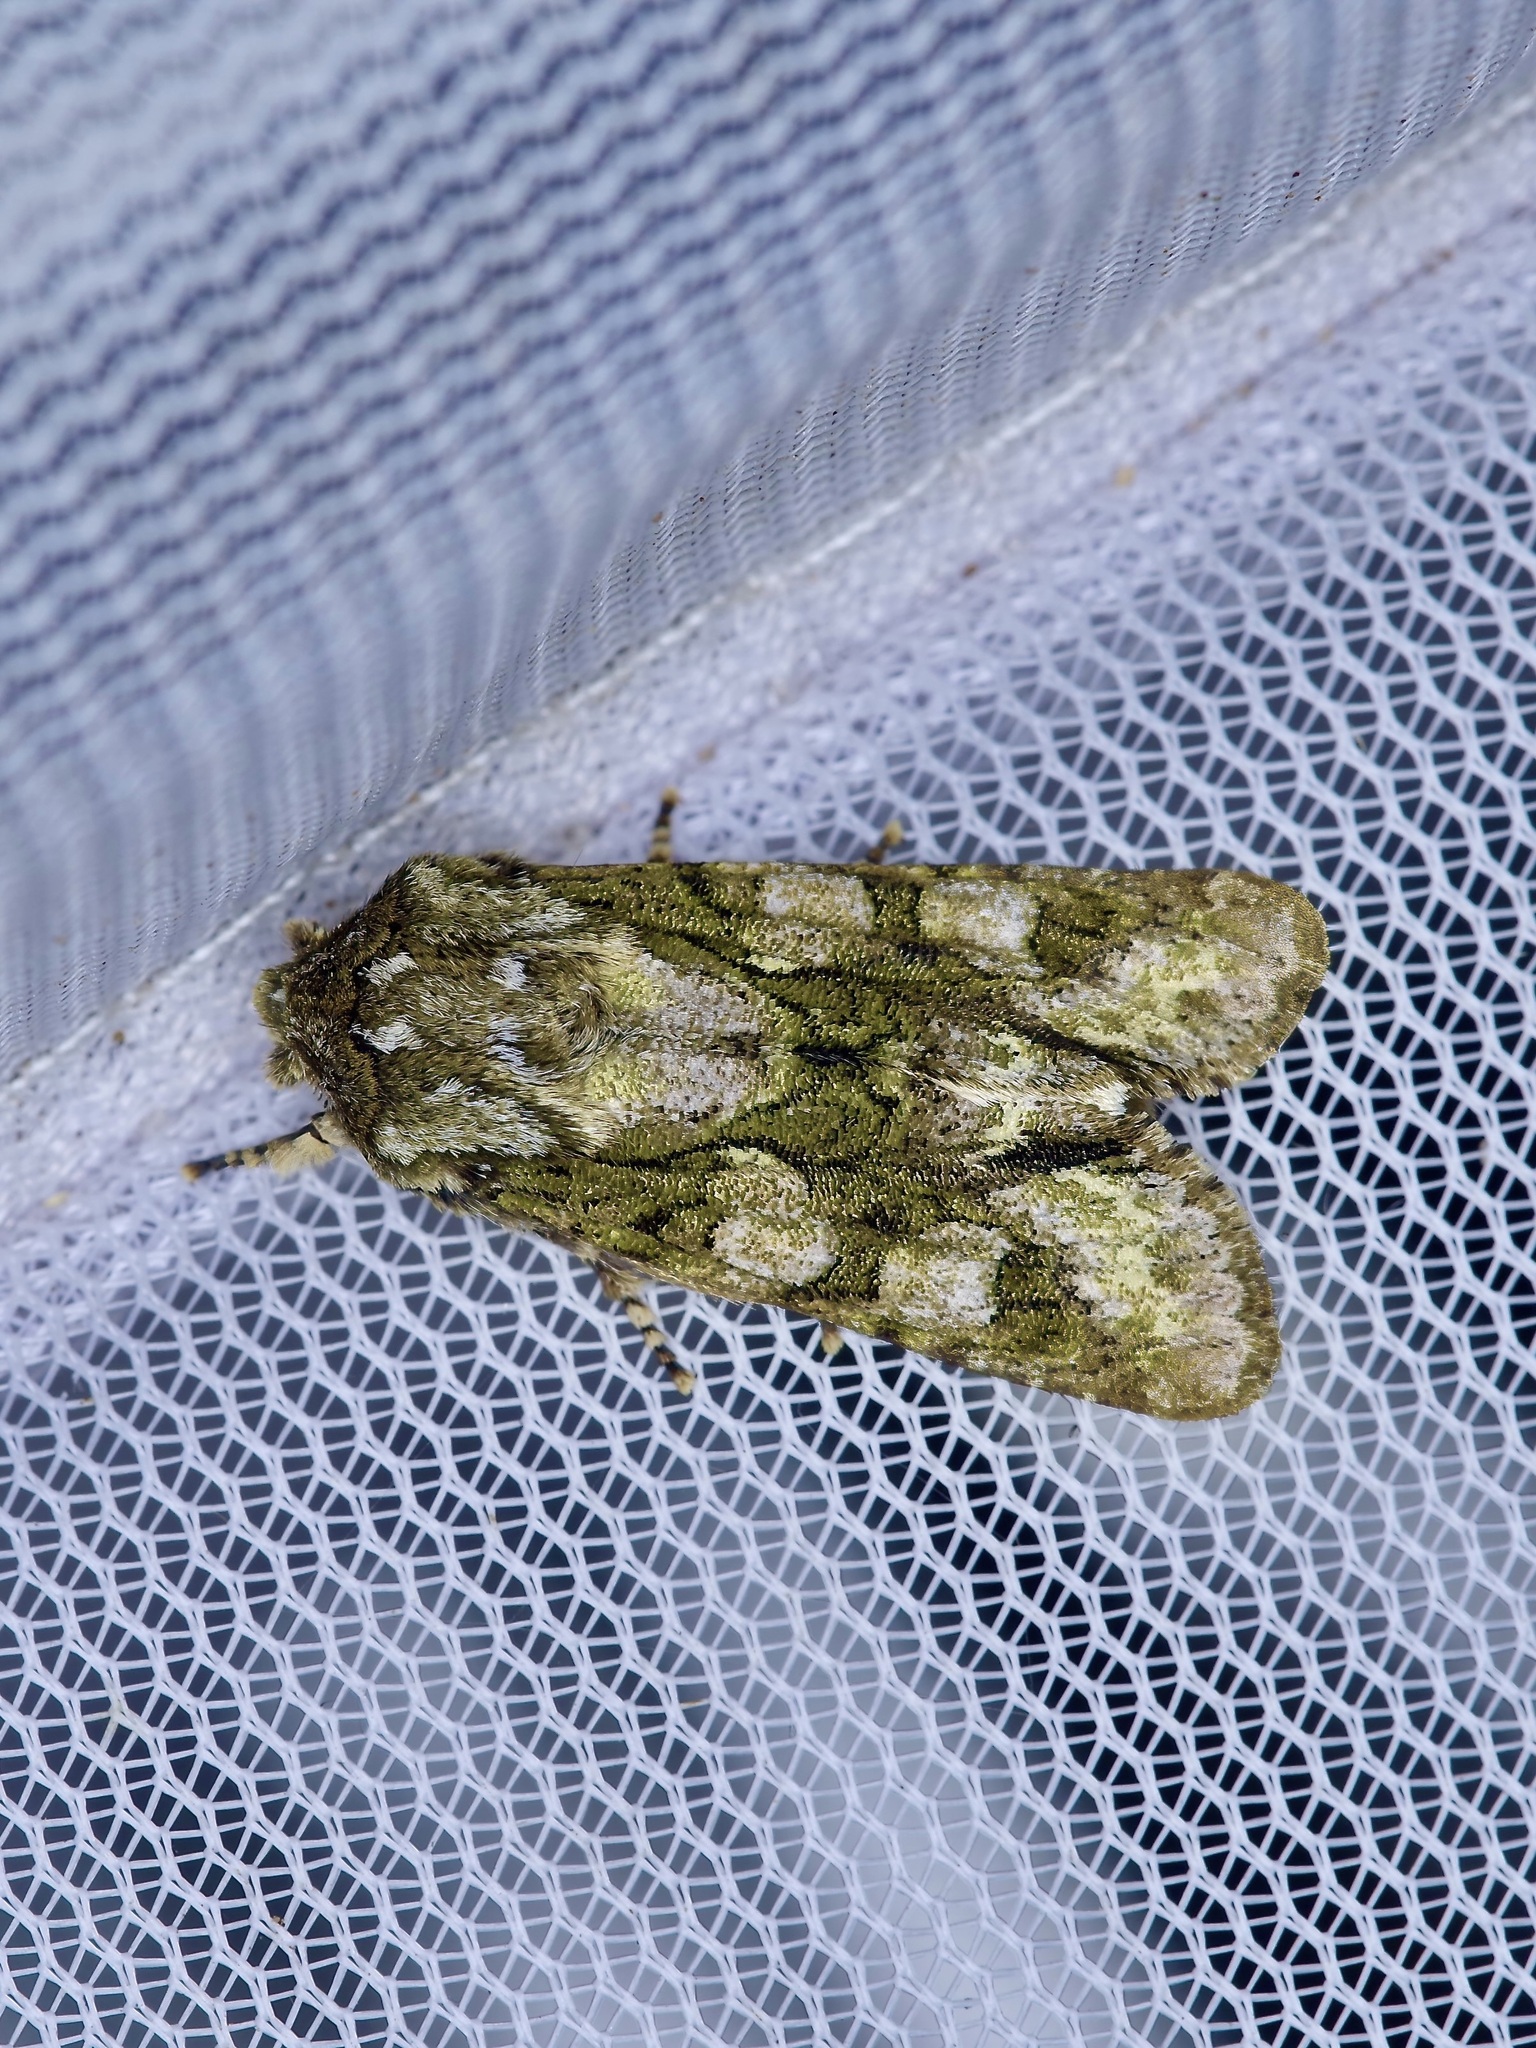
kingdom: Animalia
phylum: Arthropoda
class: Insecta
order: Lepidoptera
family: Noctuidae
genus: Psaphida
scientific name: Psaphida resumens
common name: Figure-eight sallow
